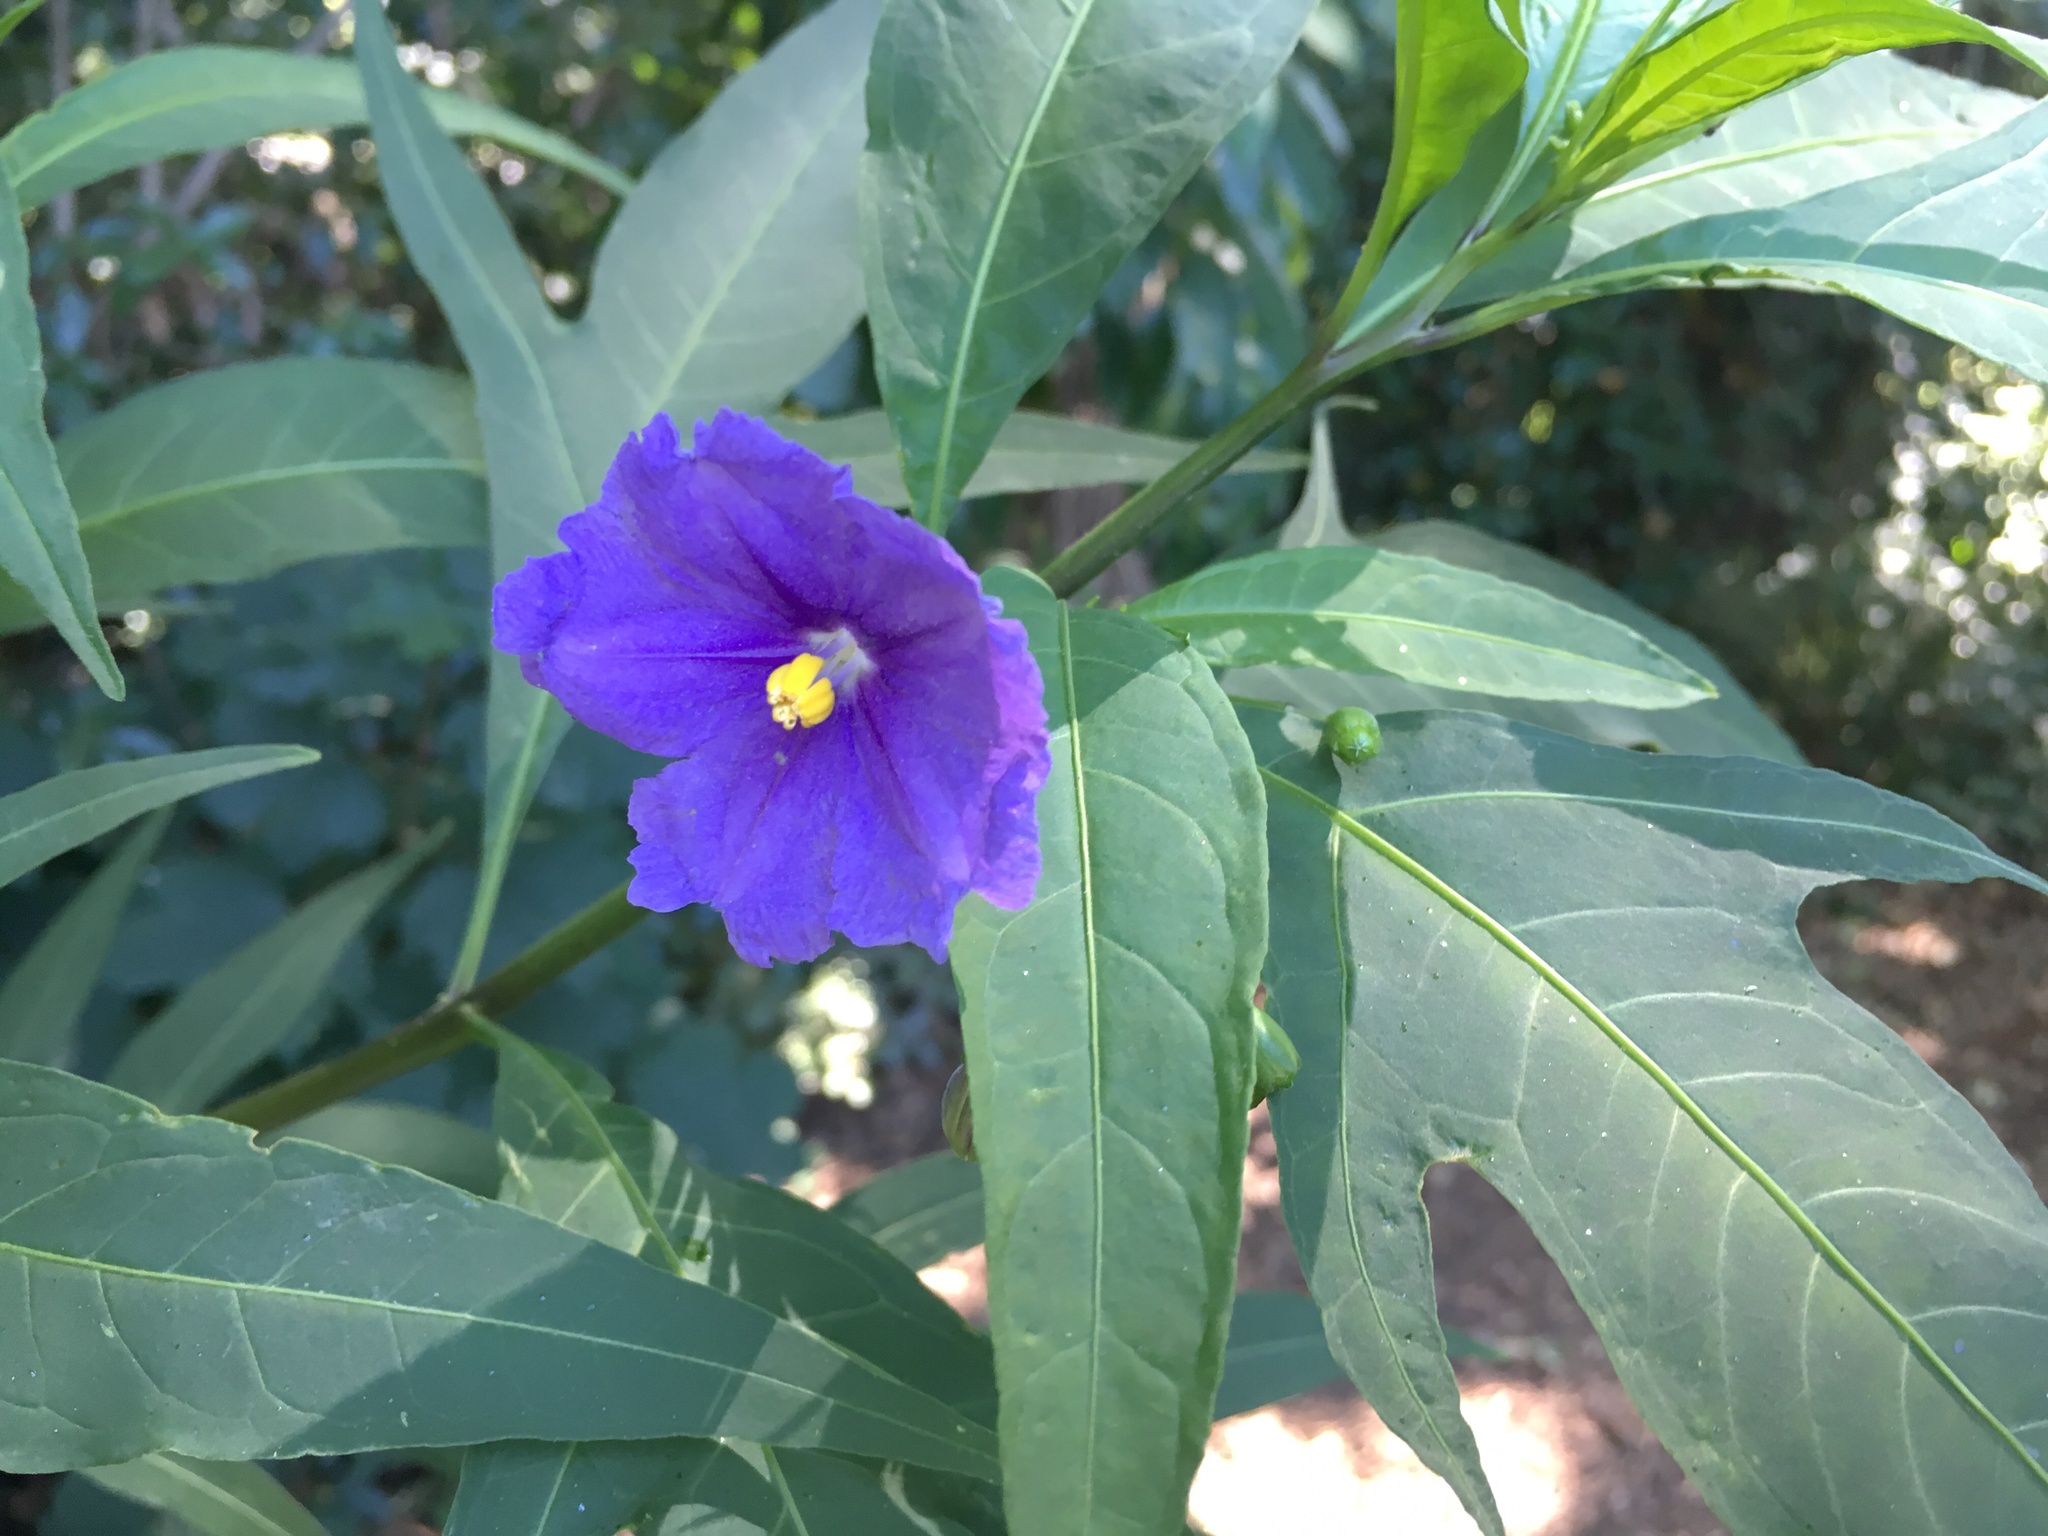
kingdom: Plantae
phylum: Tracheophyta
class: Magnoliopsida
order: Solanales
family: Solanaceae
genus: Solanum
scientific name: Solanum laciniatum
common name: Kangaroo-apple
